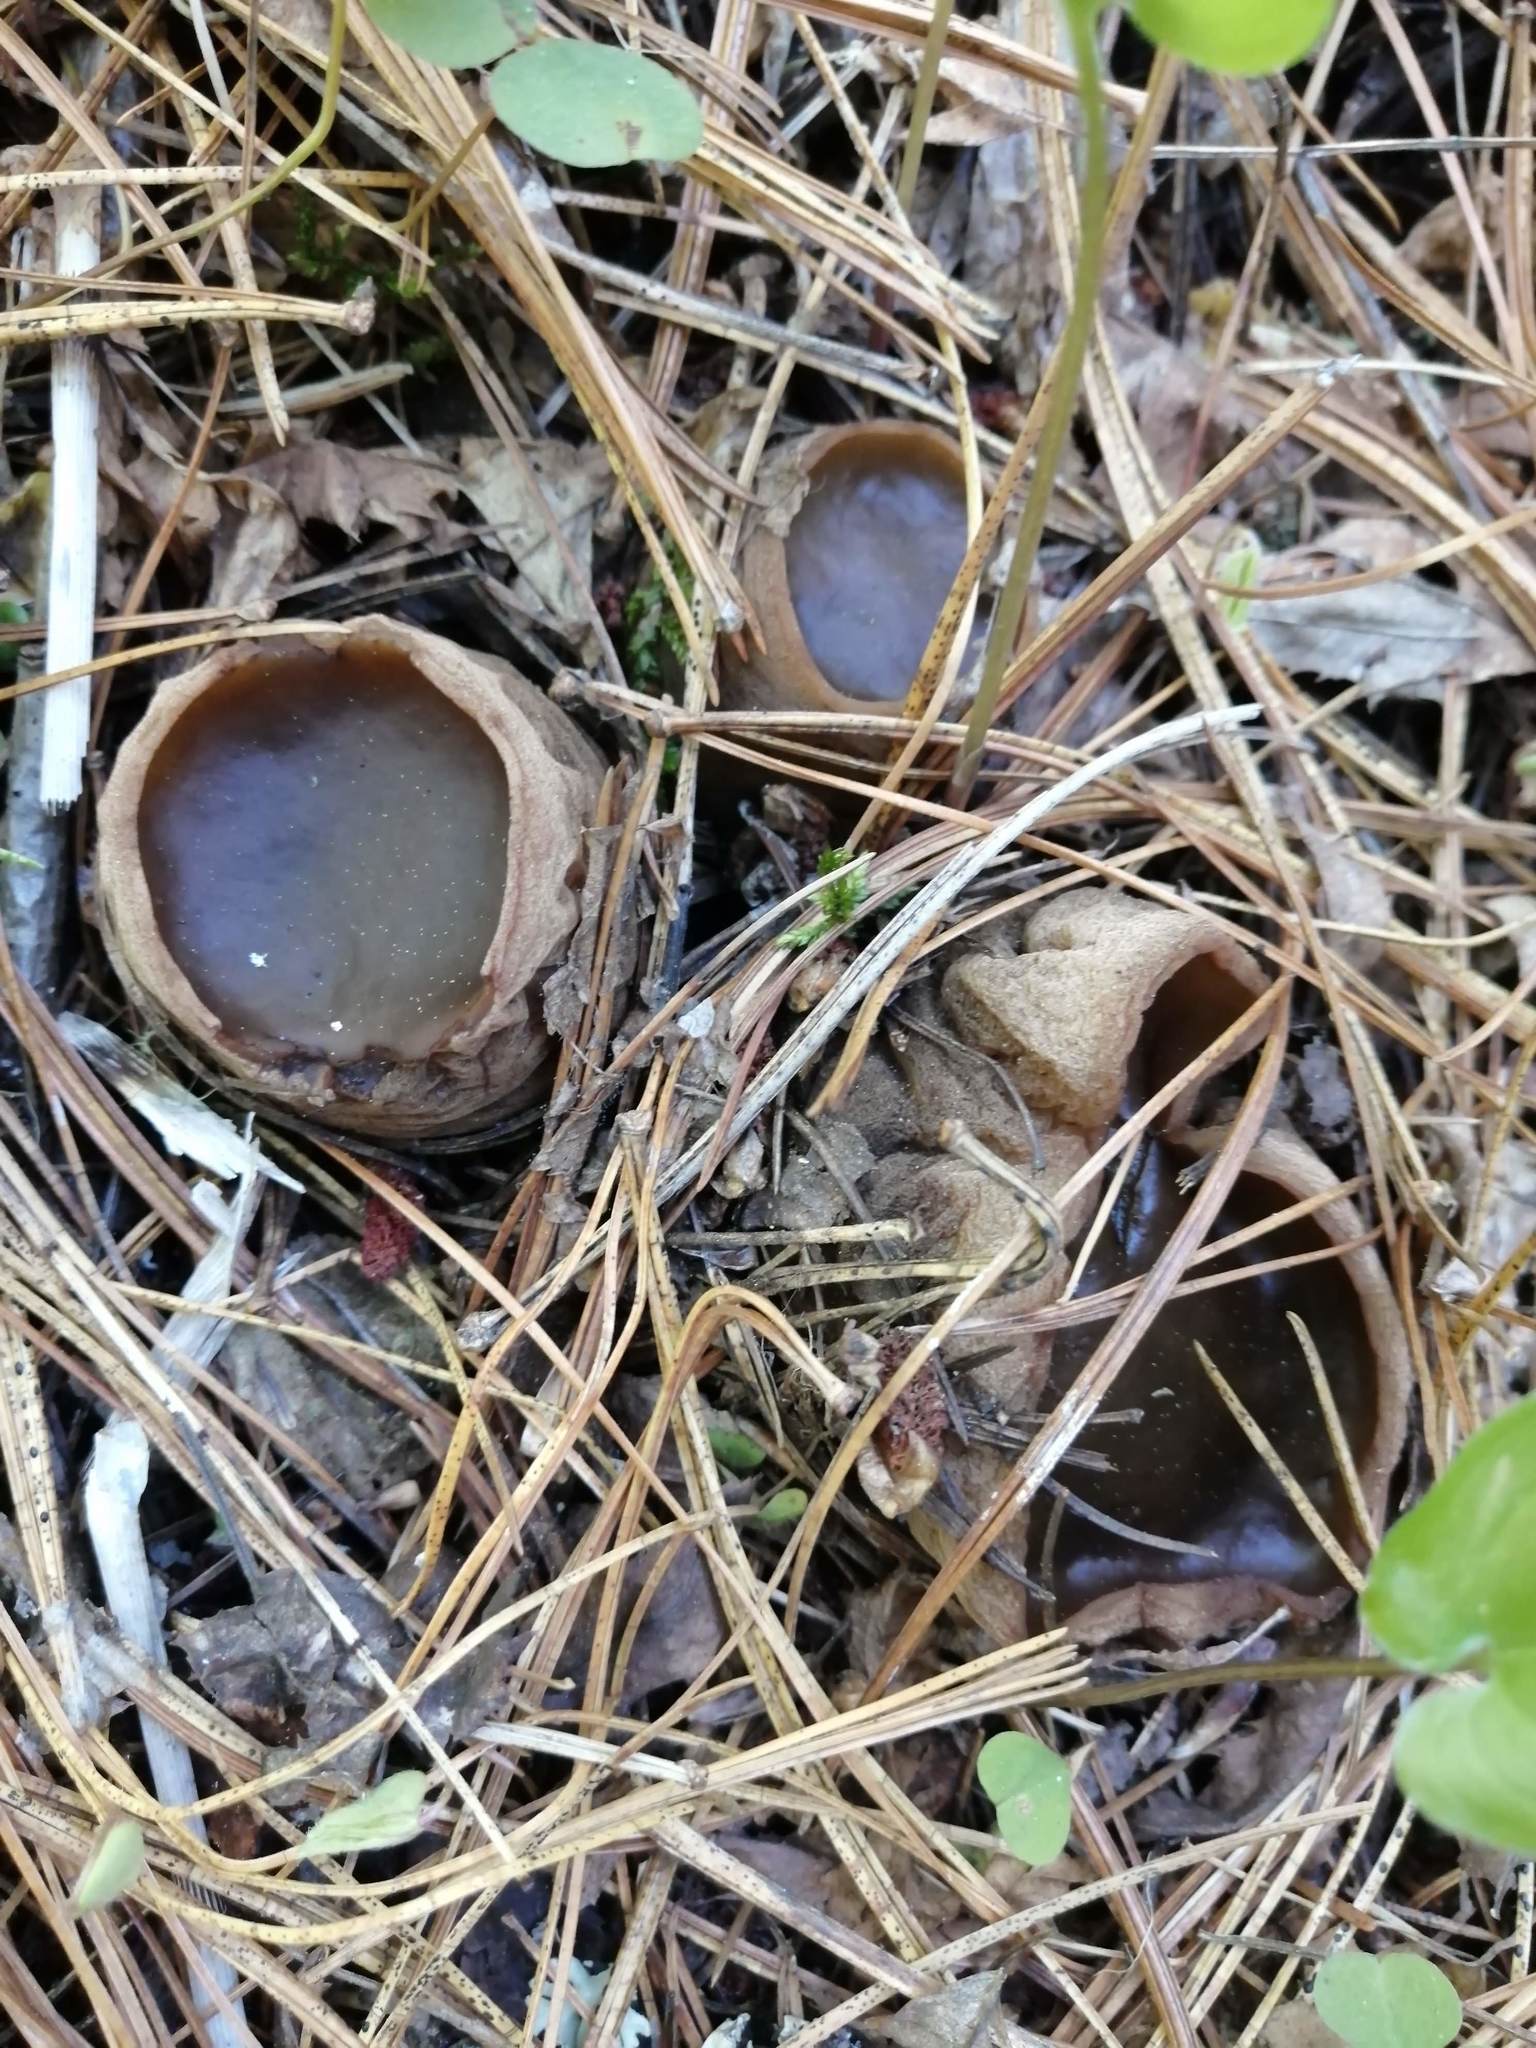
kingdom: Fungi
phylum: Ascomycota
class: Pezizomycetes
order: Pezizales
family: Sarcosomataceae
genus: Sarcosoma
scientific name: Sarcosoma globosum
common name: Charred-pancake cup
